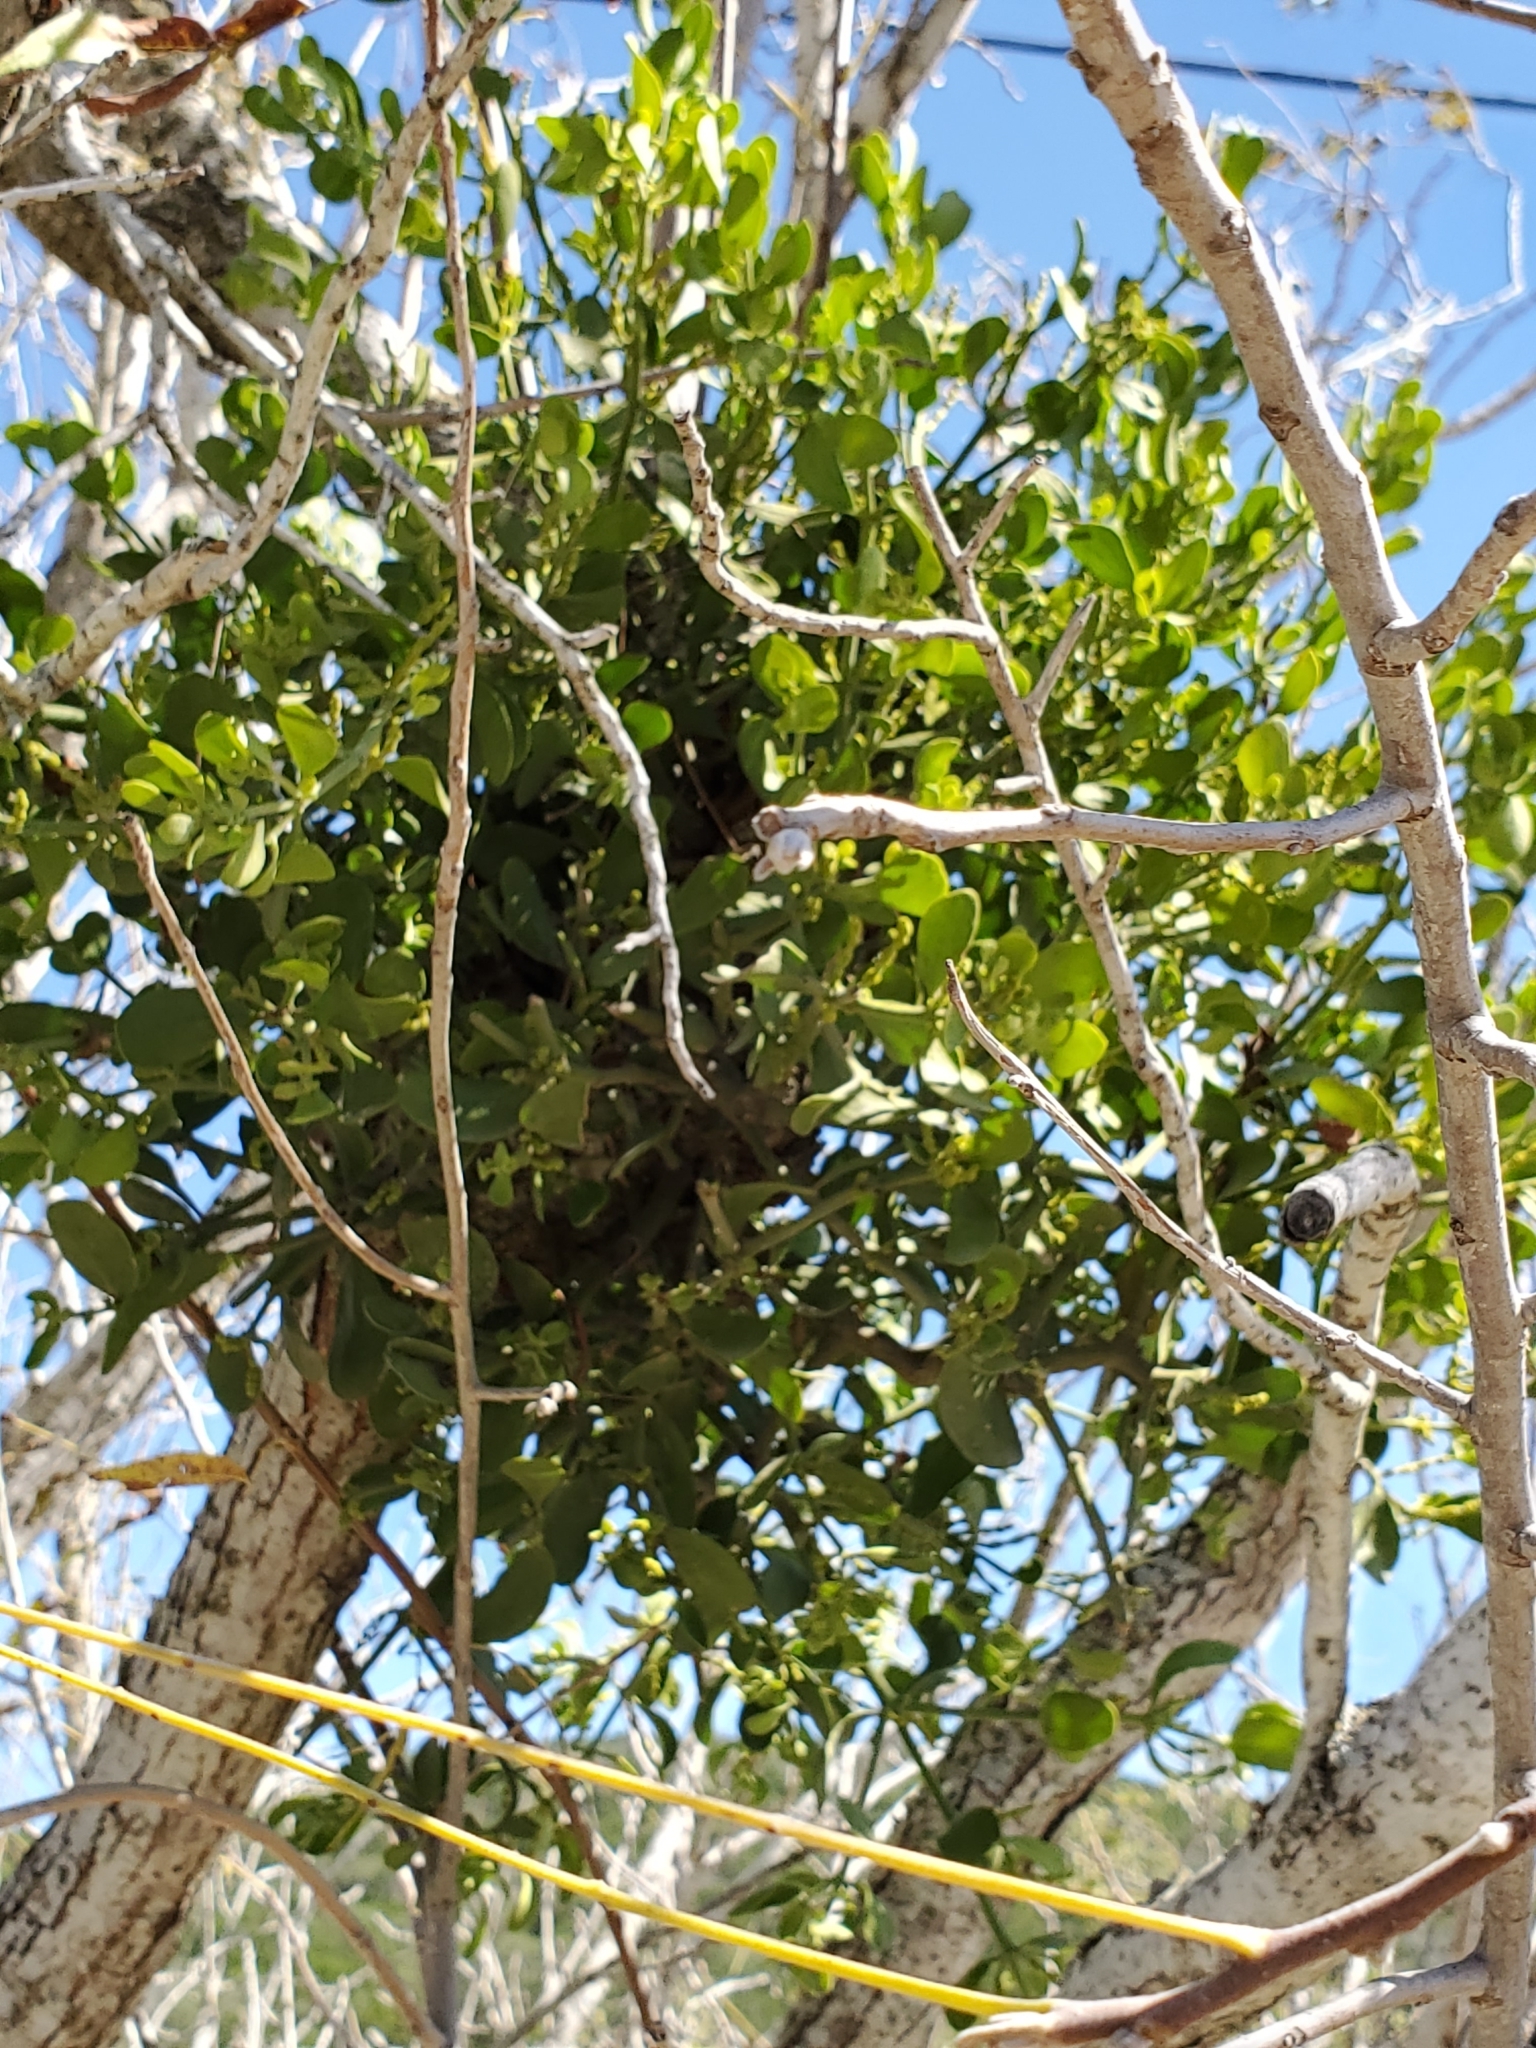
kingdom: Plantae
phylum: Tracheophyta
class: Magnoliopsida
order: Santalales
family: Viscaceae
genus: Phoradendron
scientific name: Phoradendron leucarpum
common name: Pacific mistletoe
